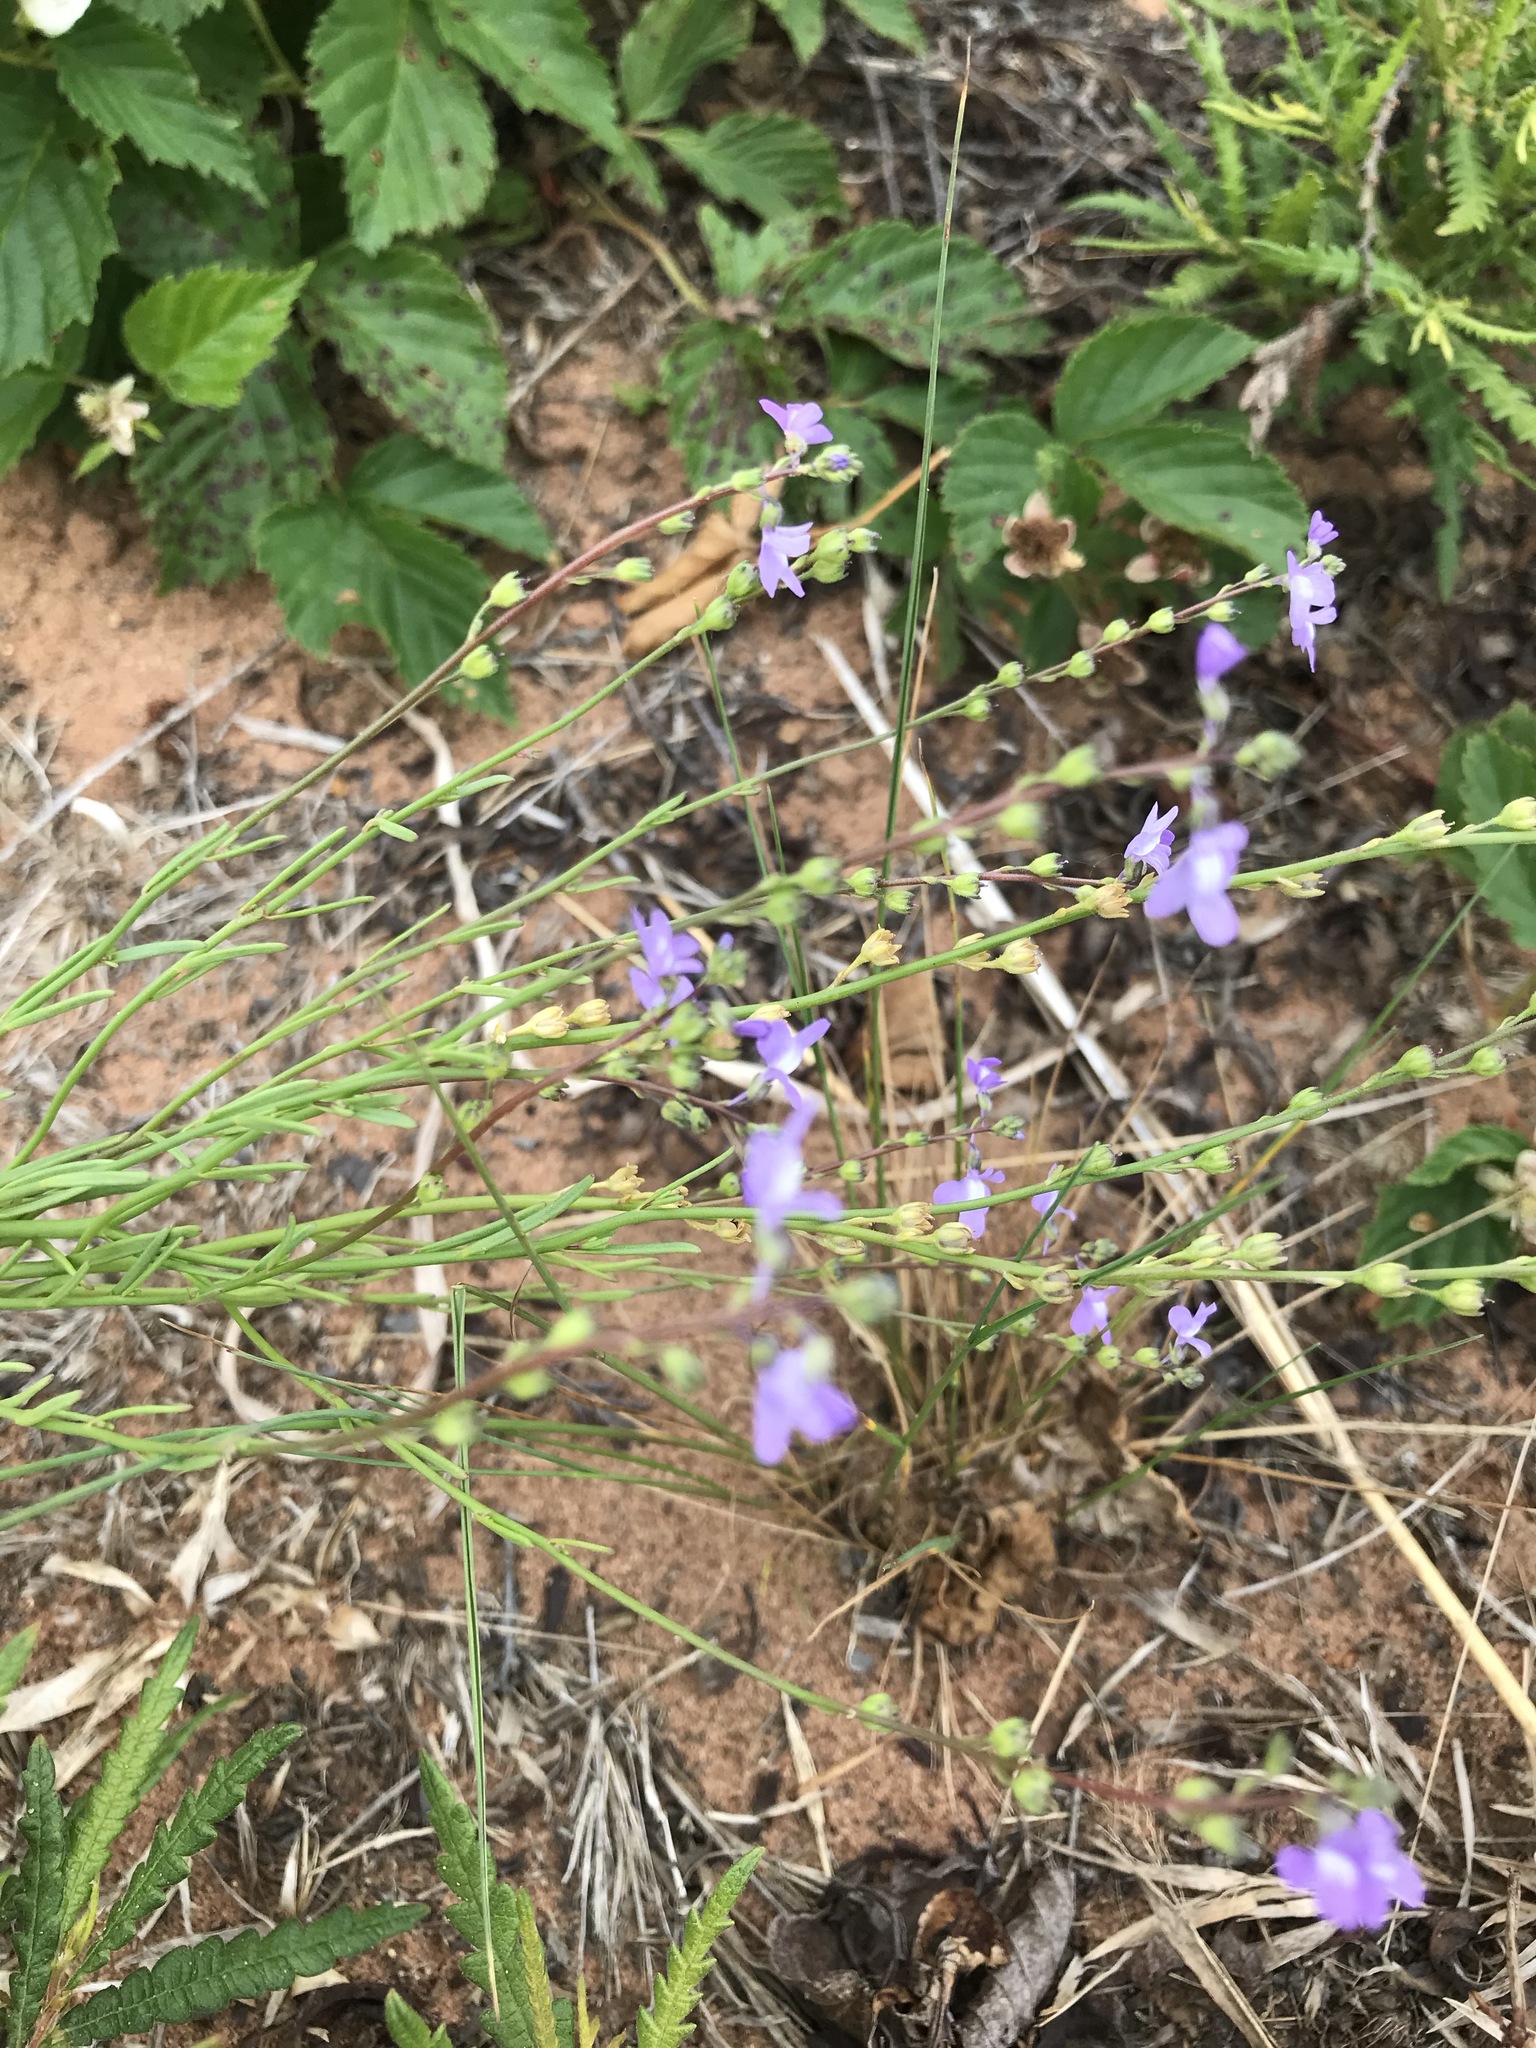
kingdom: Plantae
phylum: Tracheophyta
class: Magnoliopsida
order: Lamiales
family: Plantaginaceae
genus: Nuttallanthus
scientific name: Nuttallanthus canadensis
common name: Blue toadflax
